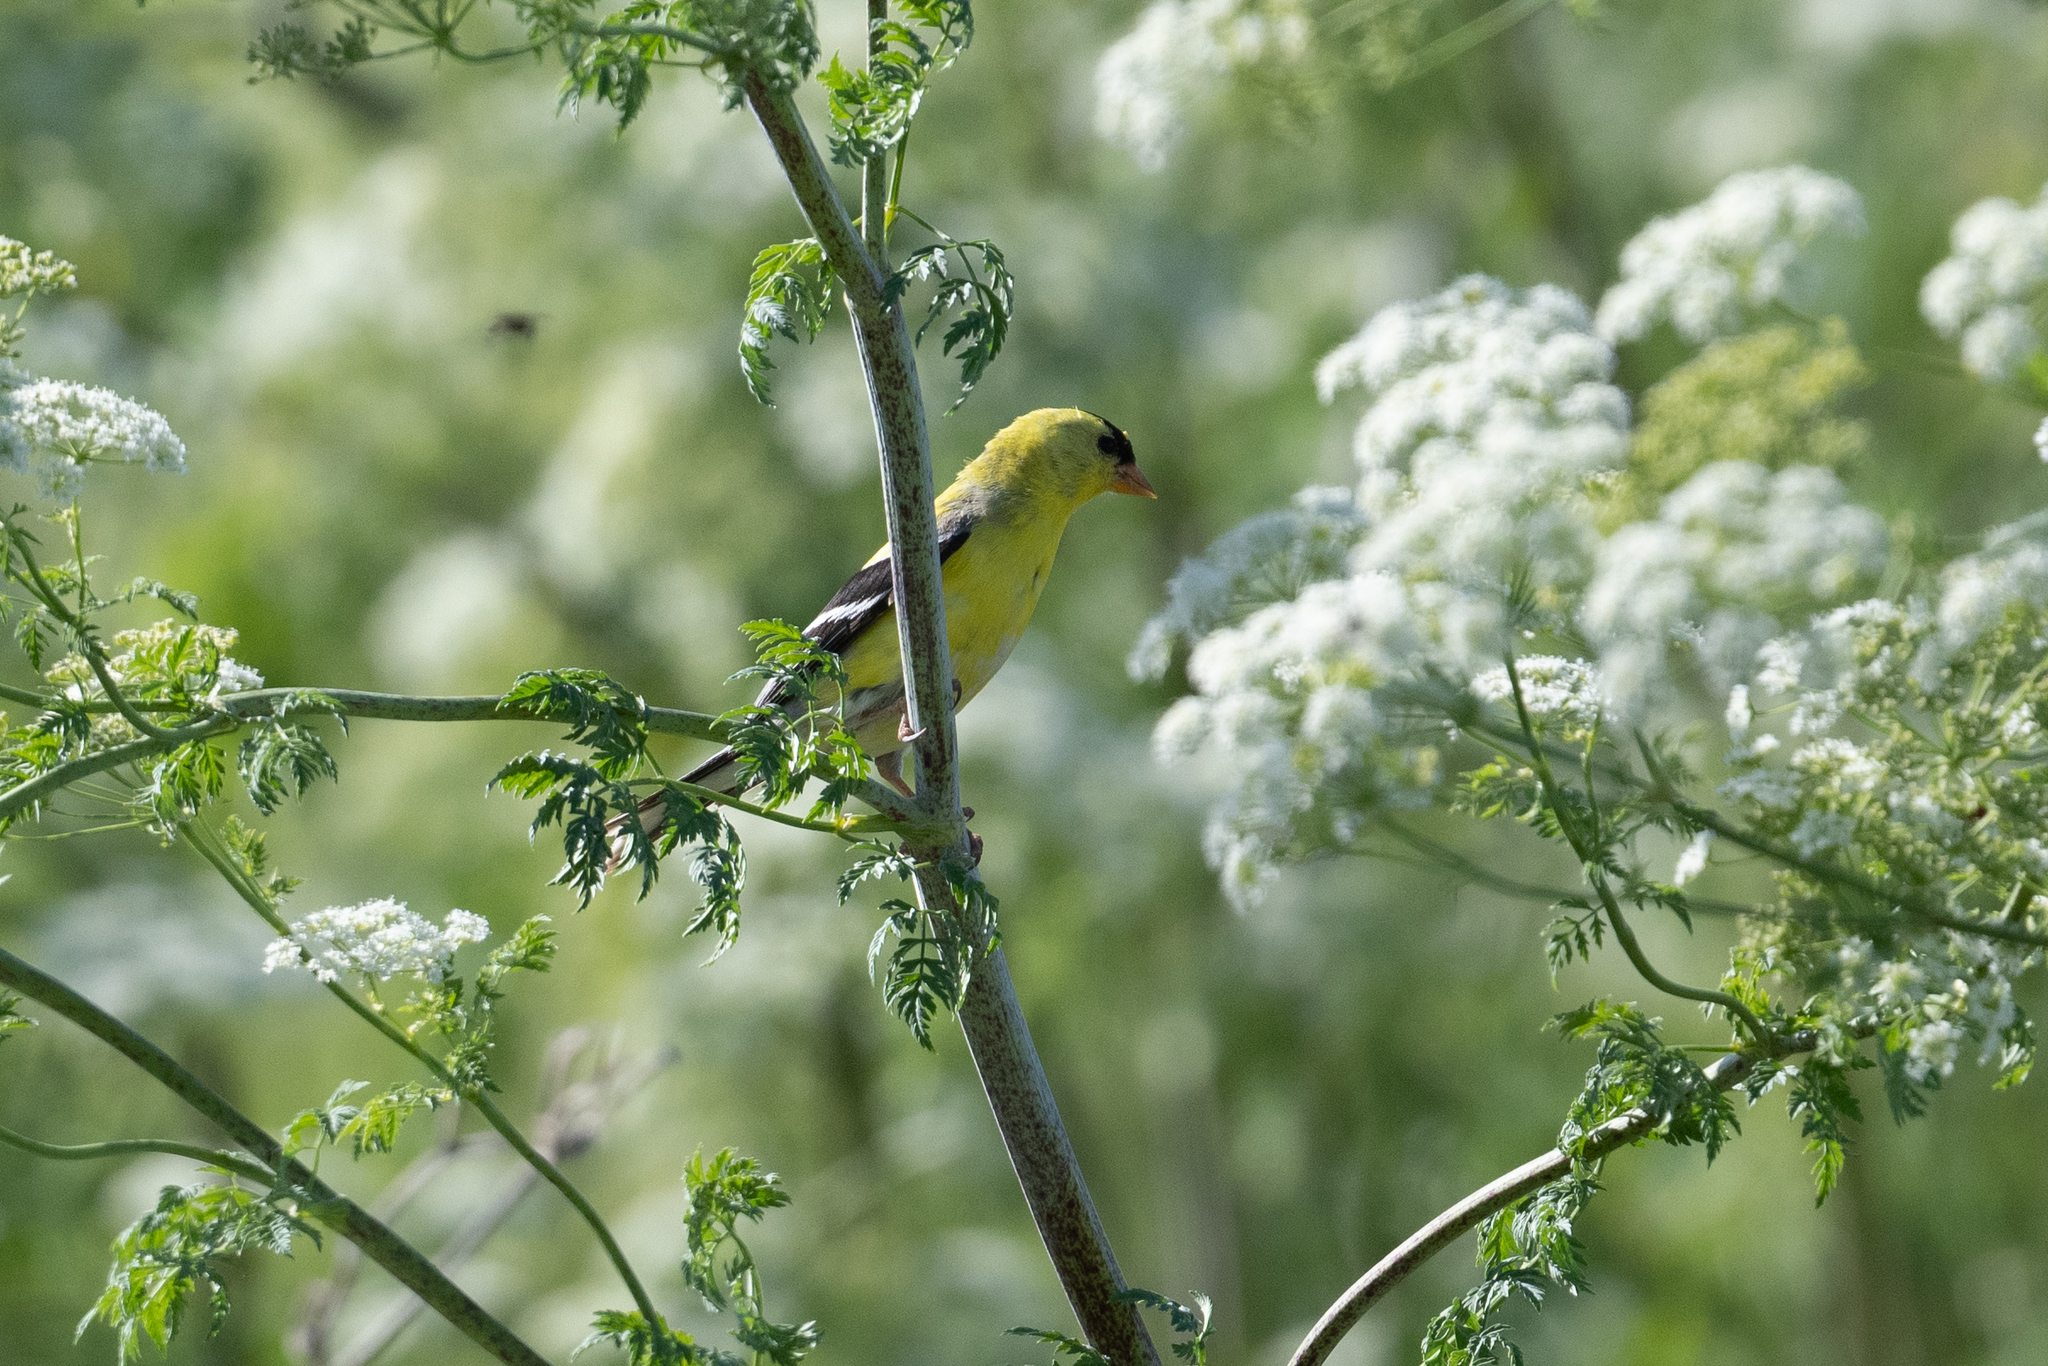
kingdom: Animalia
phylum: Chordata
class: Aves
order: Passeriformes
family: Fringillidae
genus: Spinus
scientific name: Spinus tristis
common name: American goldfinch
